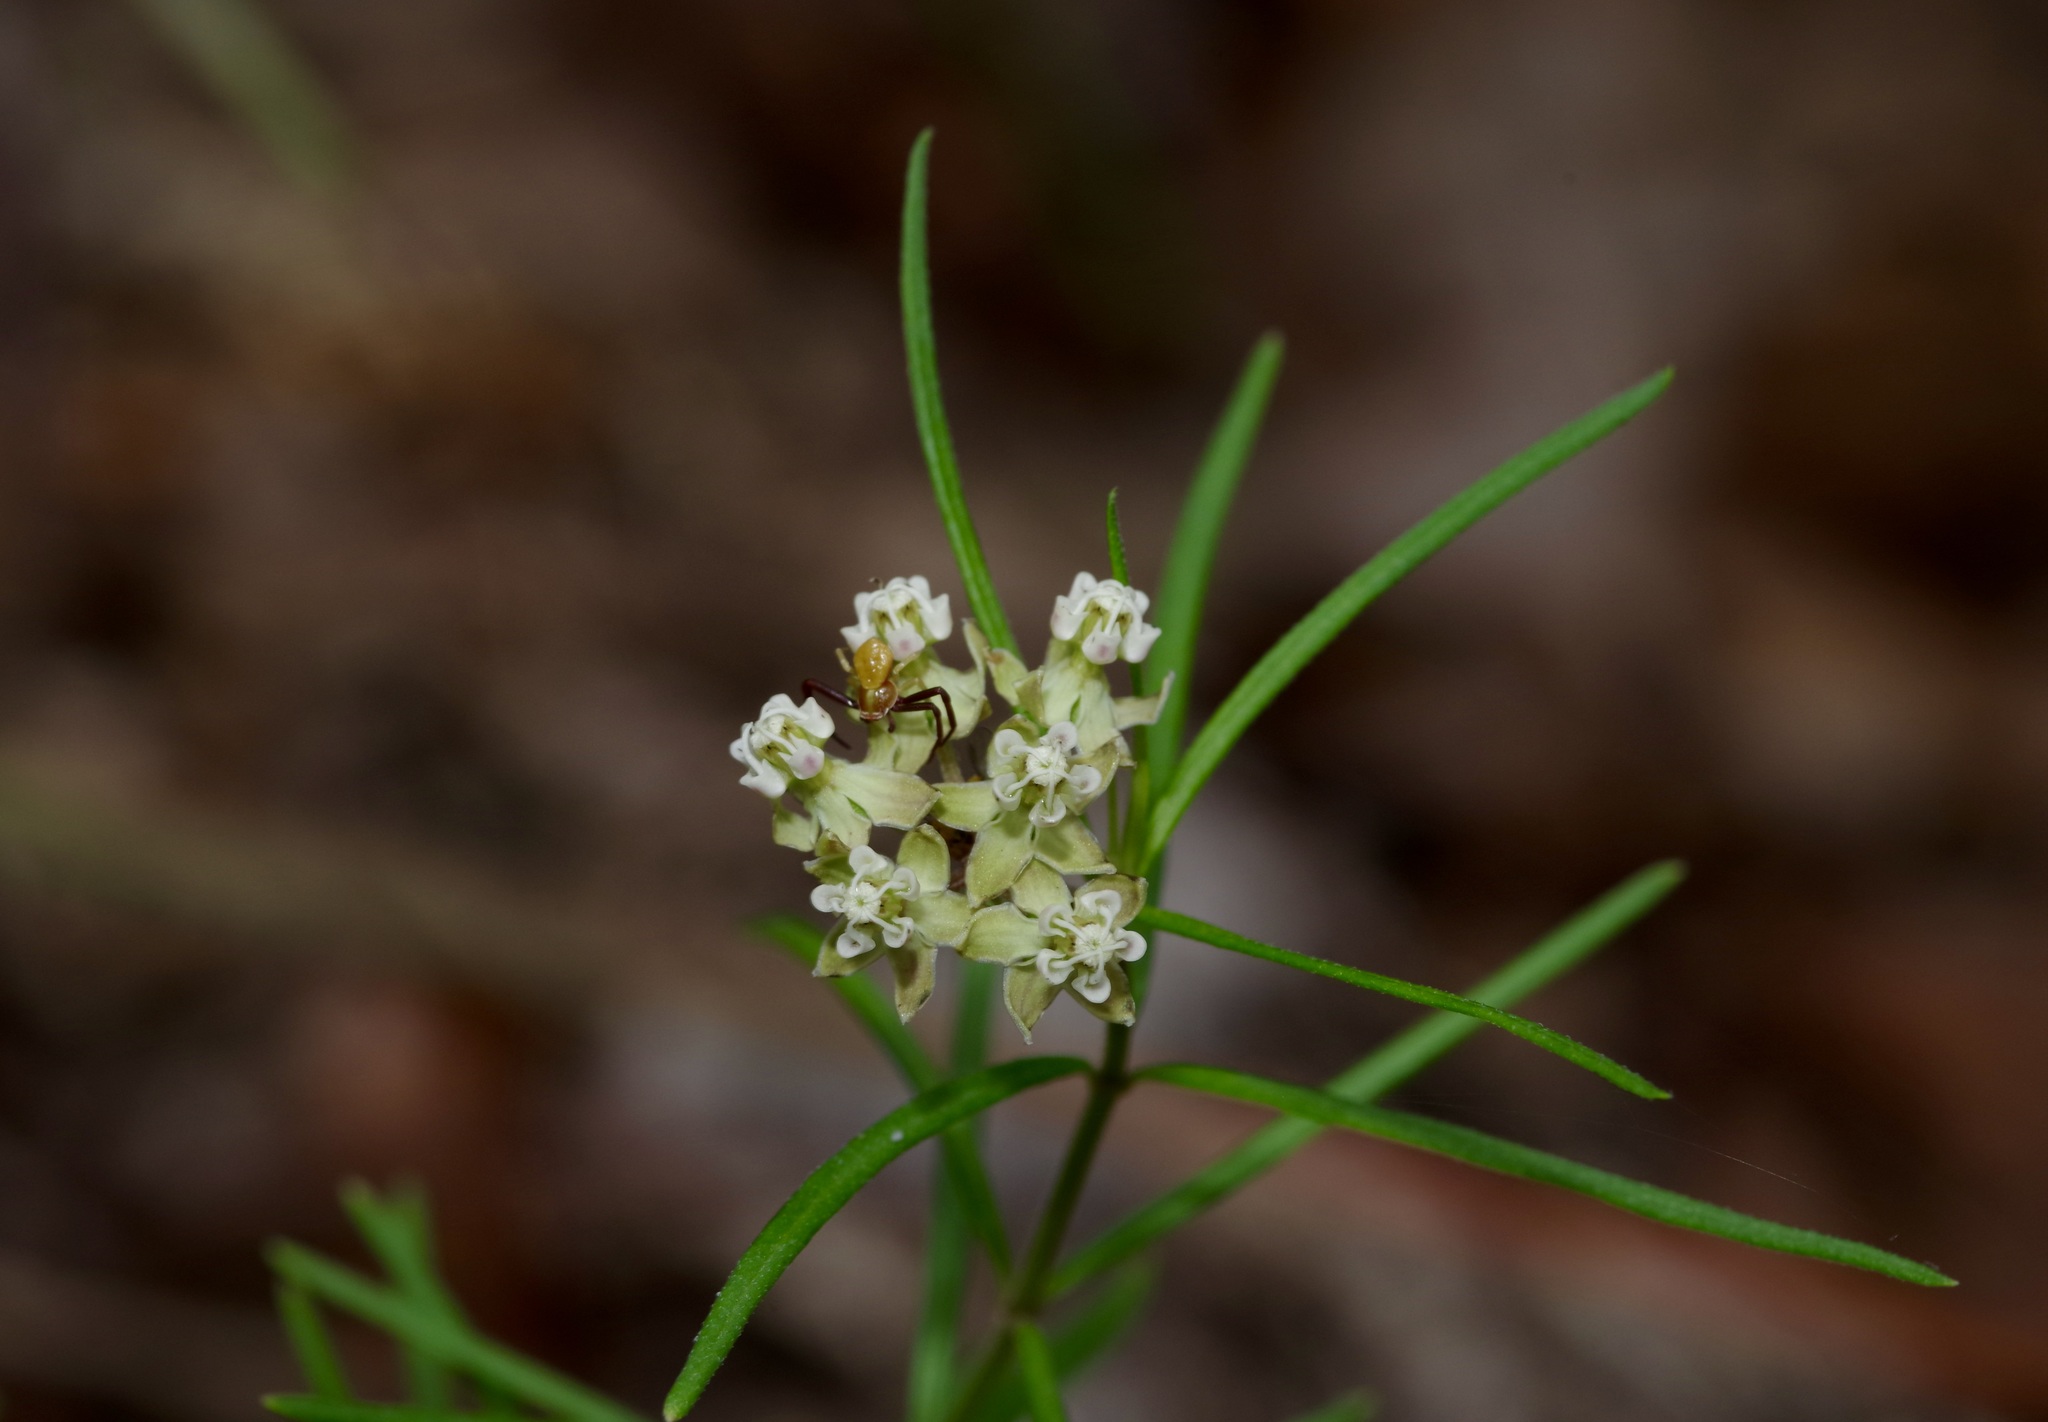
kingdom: Plantae
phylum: Tracheophyta
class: Magnoliopsida
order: Gentianales
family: Apocynaceae
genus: Asclepias
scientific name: Asclepias verticillata
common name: Eastern whorled milkweed
